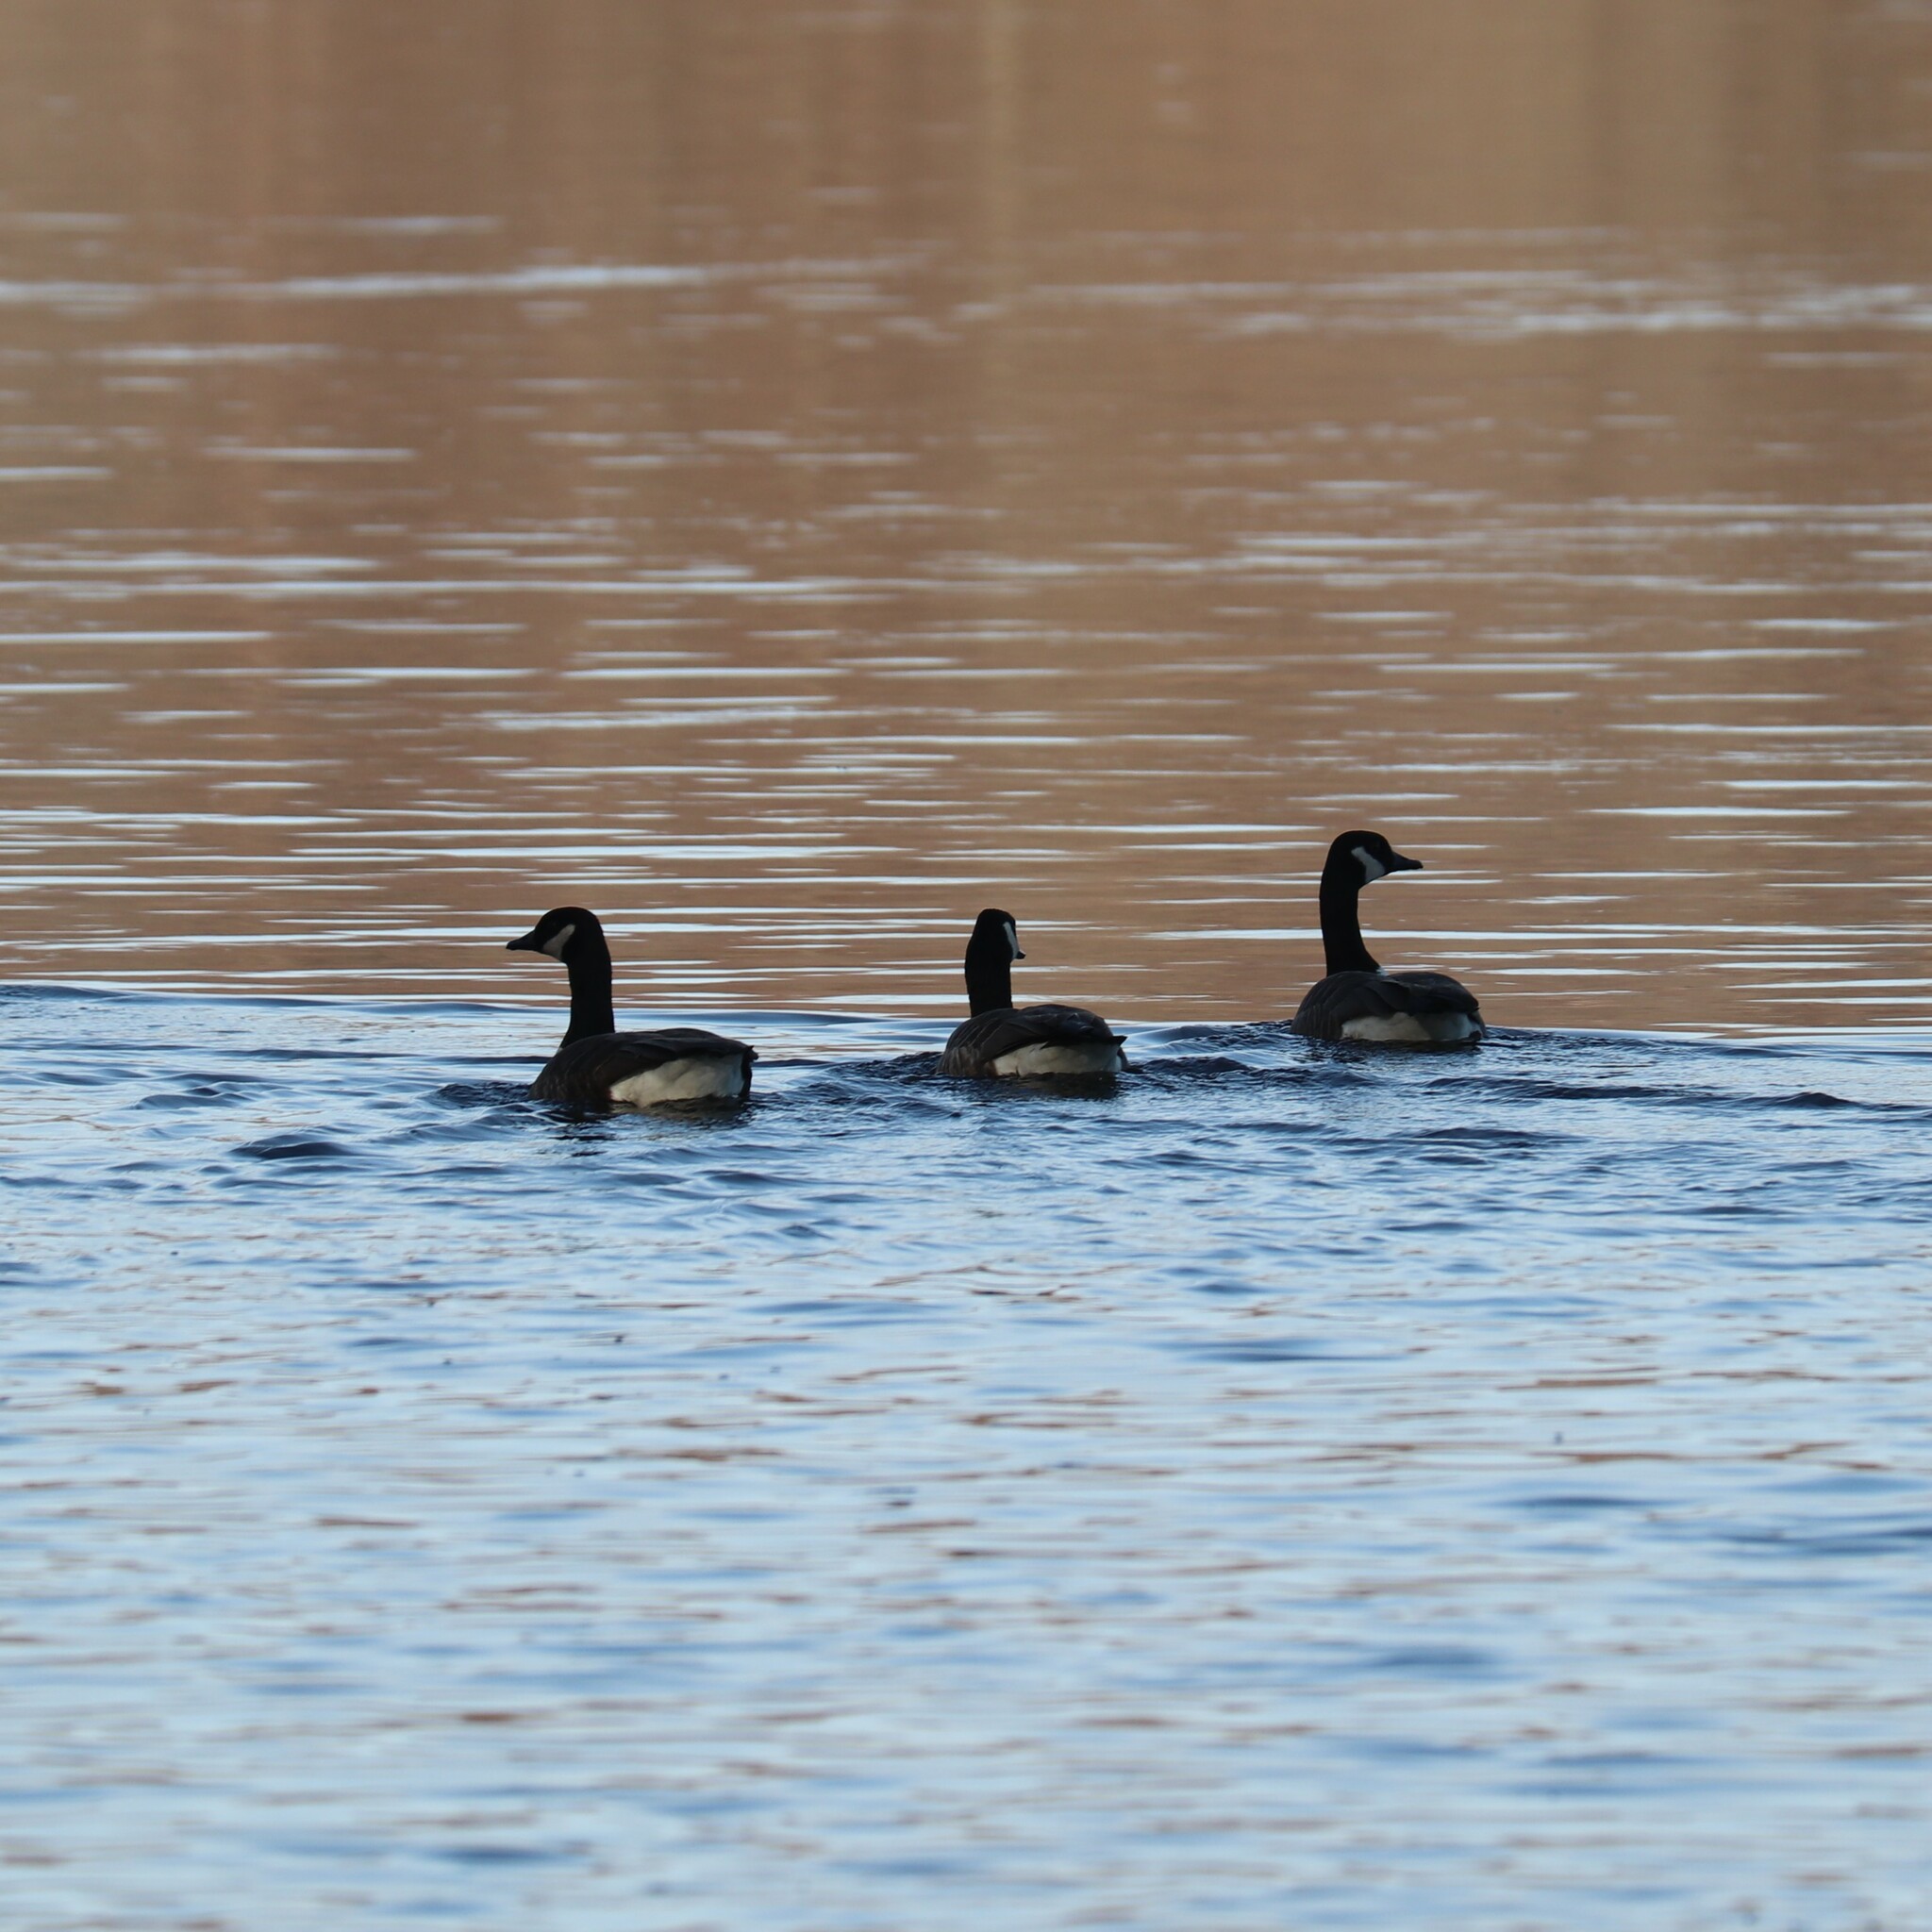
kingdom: Animalia
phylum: Chordata
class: Aves
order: Anseriformes
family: Anatidae
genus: Branta
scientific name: Branta canadensis
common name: Canada goose
